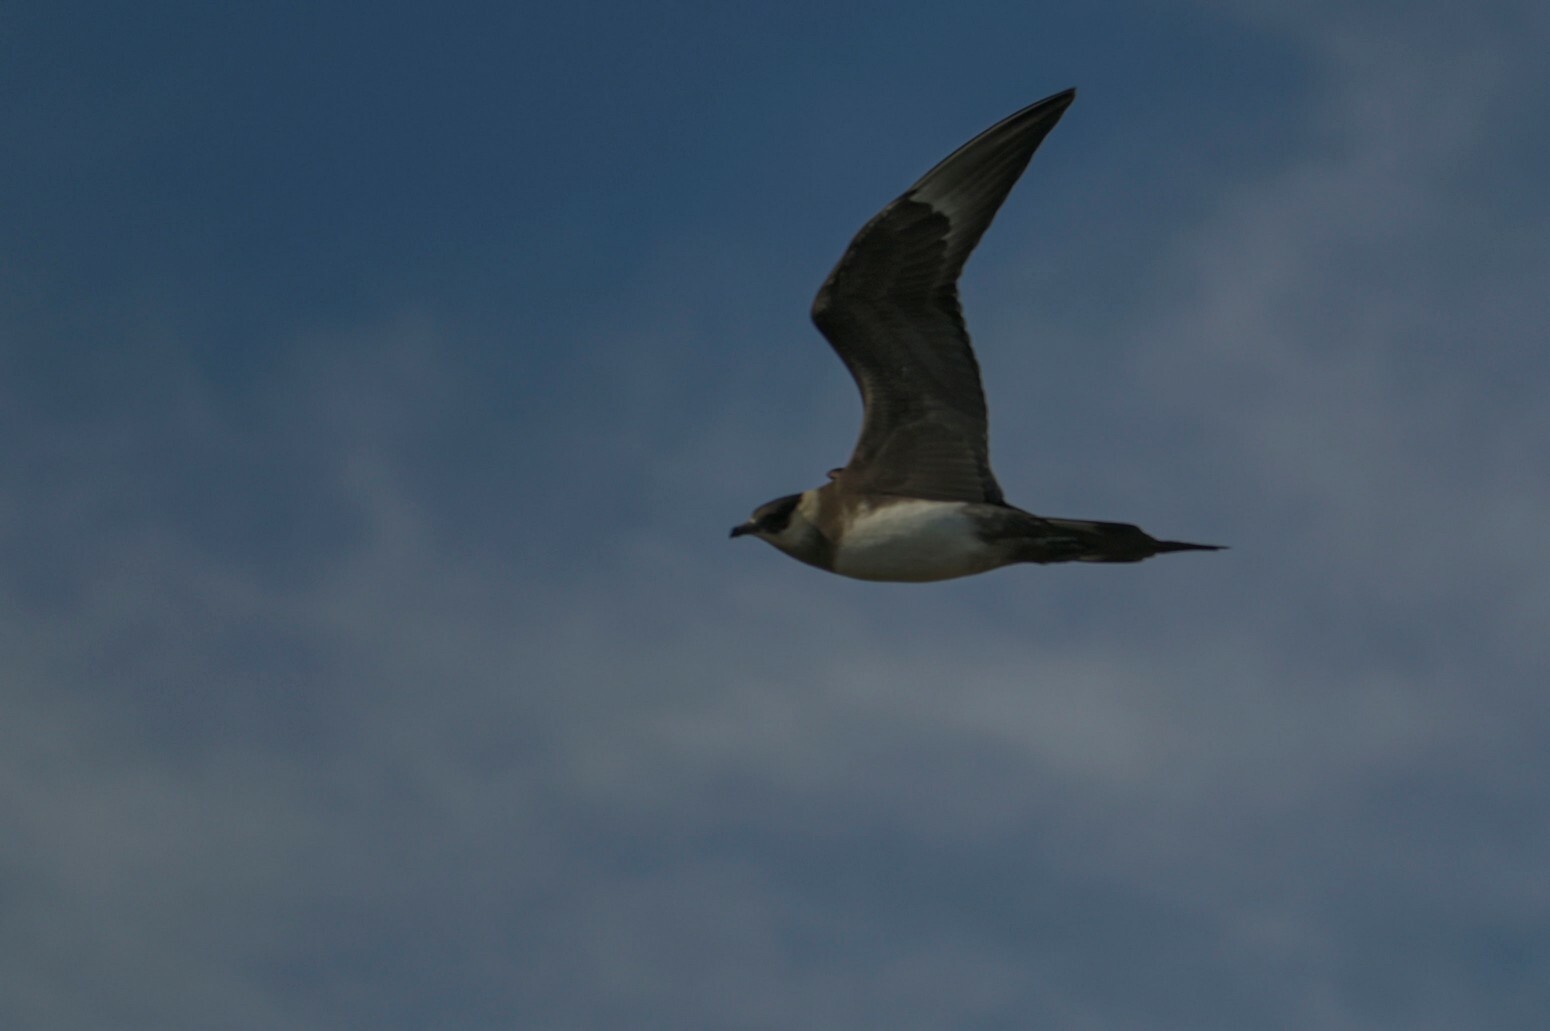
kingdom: Animalia
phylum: Chordata
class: Aves
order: Charadriiformes
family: Stercorariidae
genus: Stercorarius
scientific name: Stercorarius parasiticus
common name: Parasitic jaeger
